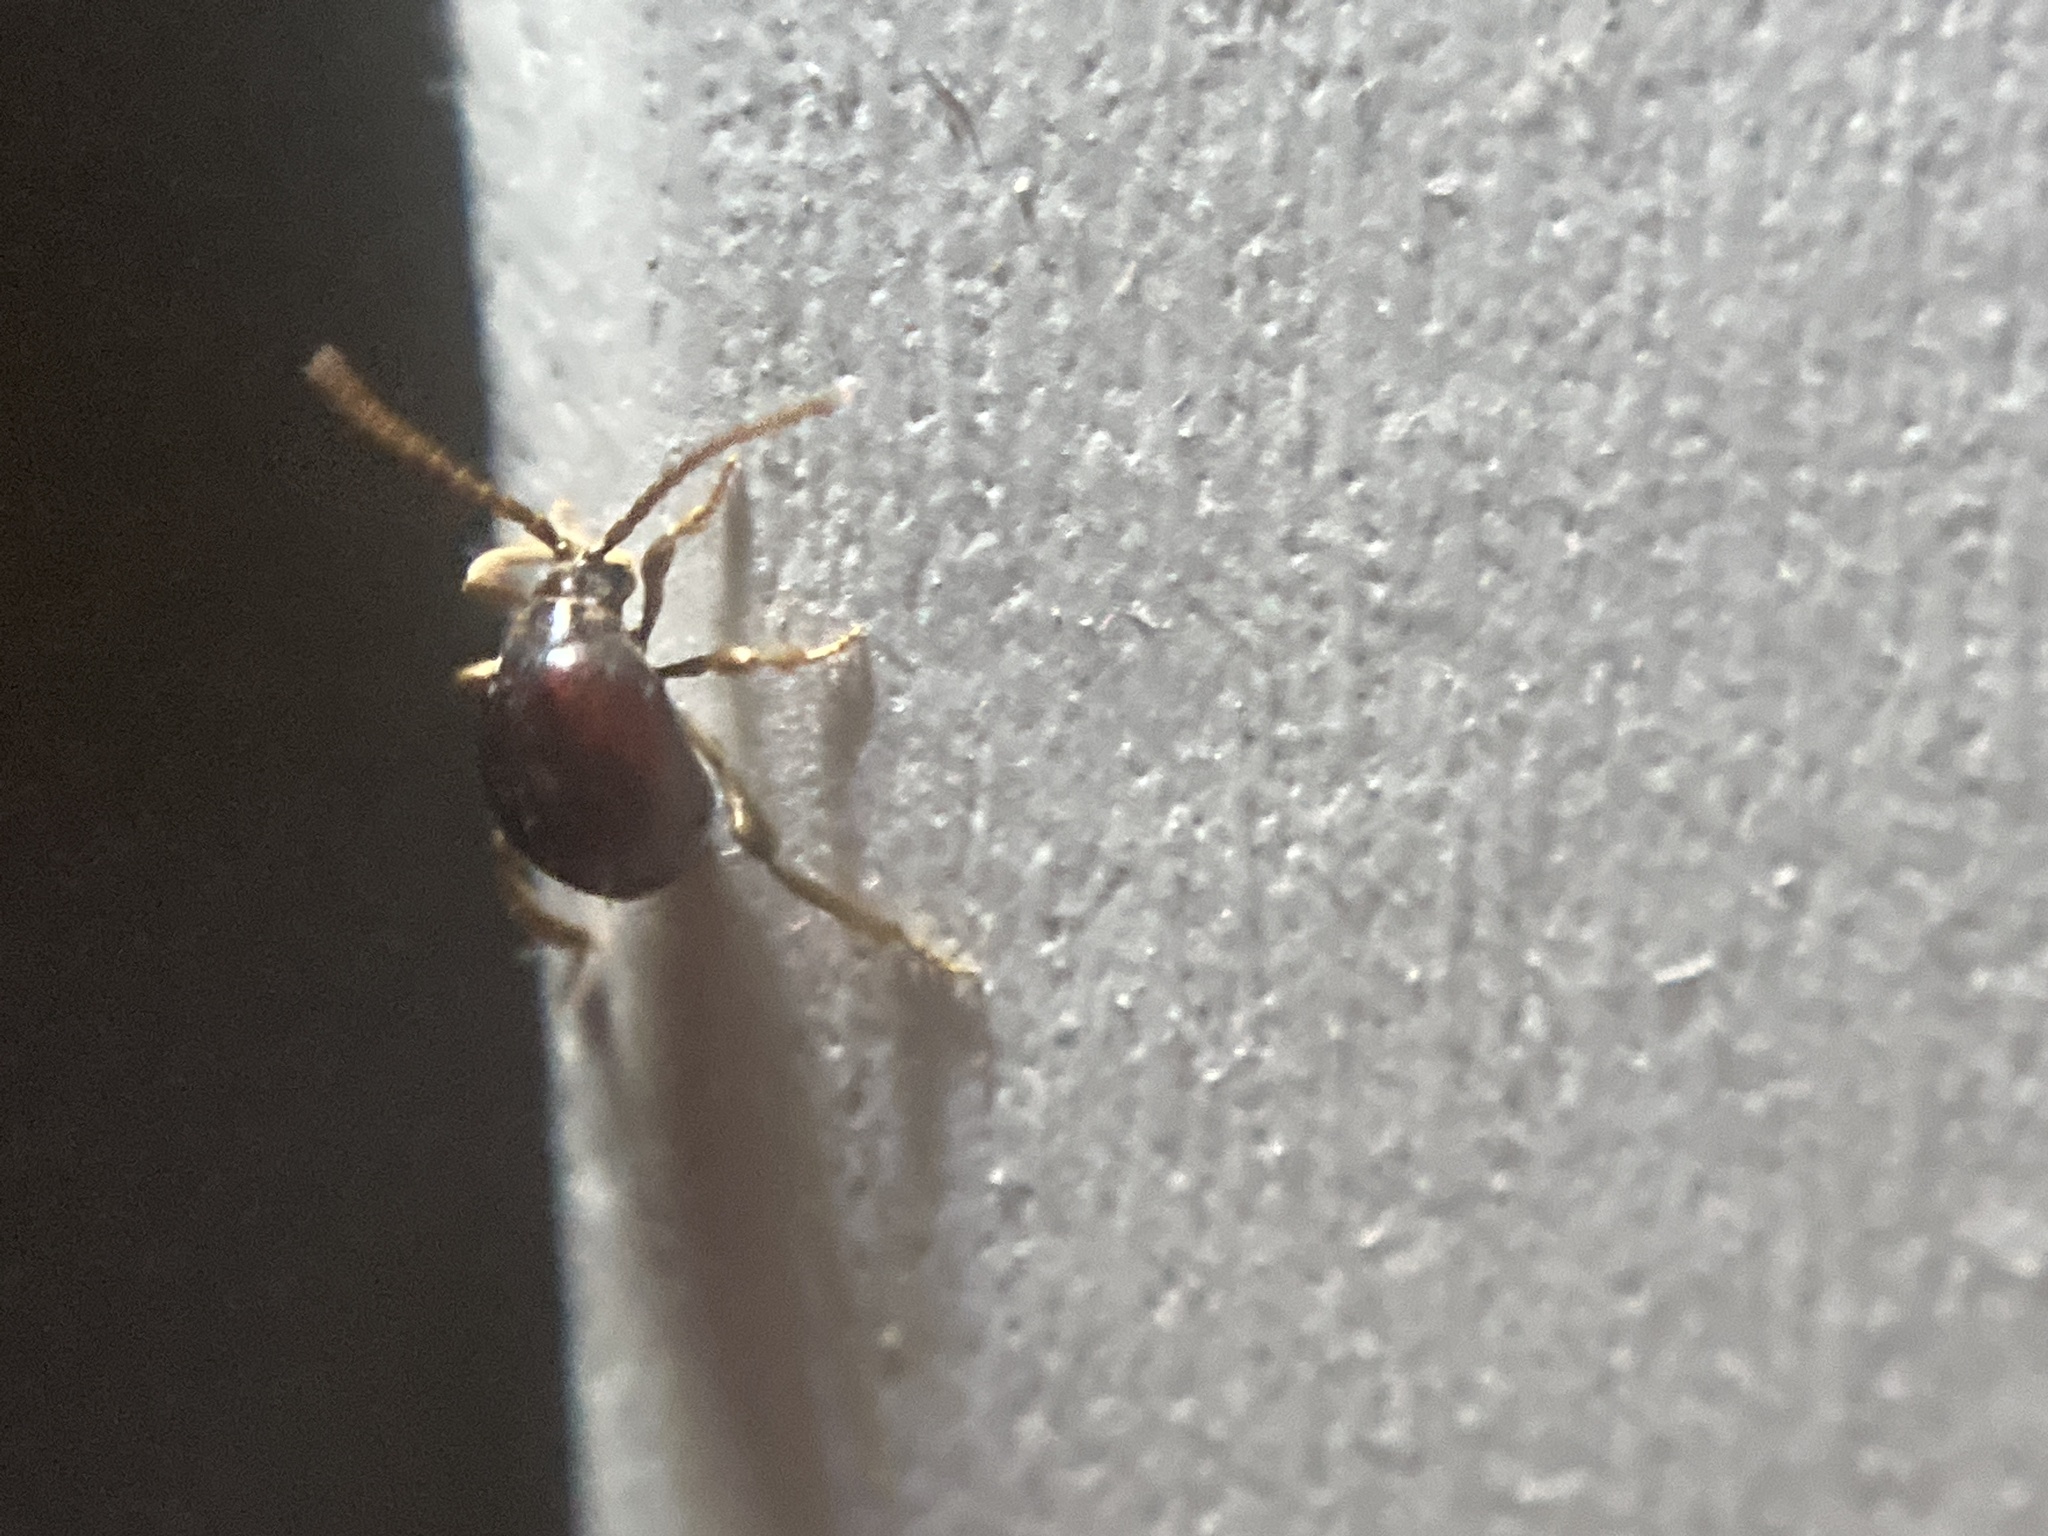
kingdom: Animalia
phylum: Arthropoda
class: Insecta
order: Coleoptera
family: Ptinidae
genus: Gibbium
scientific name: Gibbium aequinoctiale
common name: Smooth spider beetle
